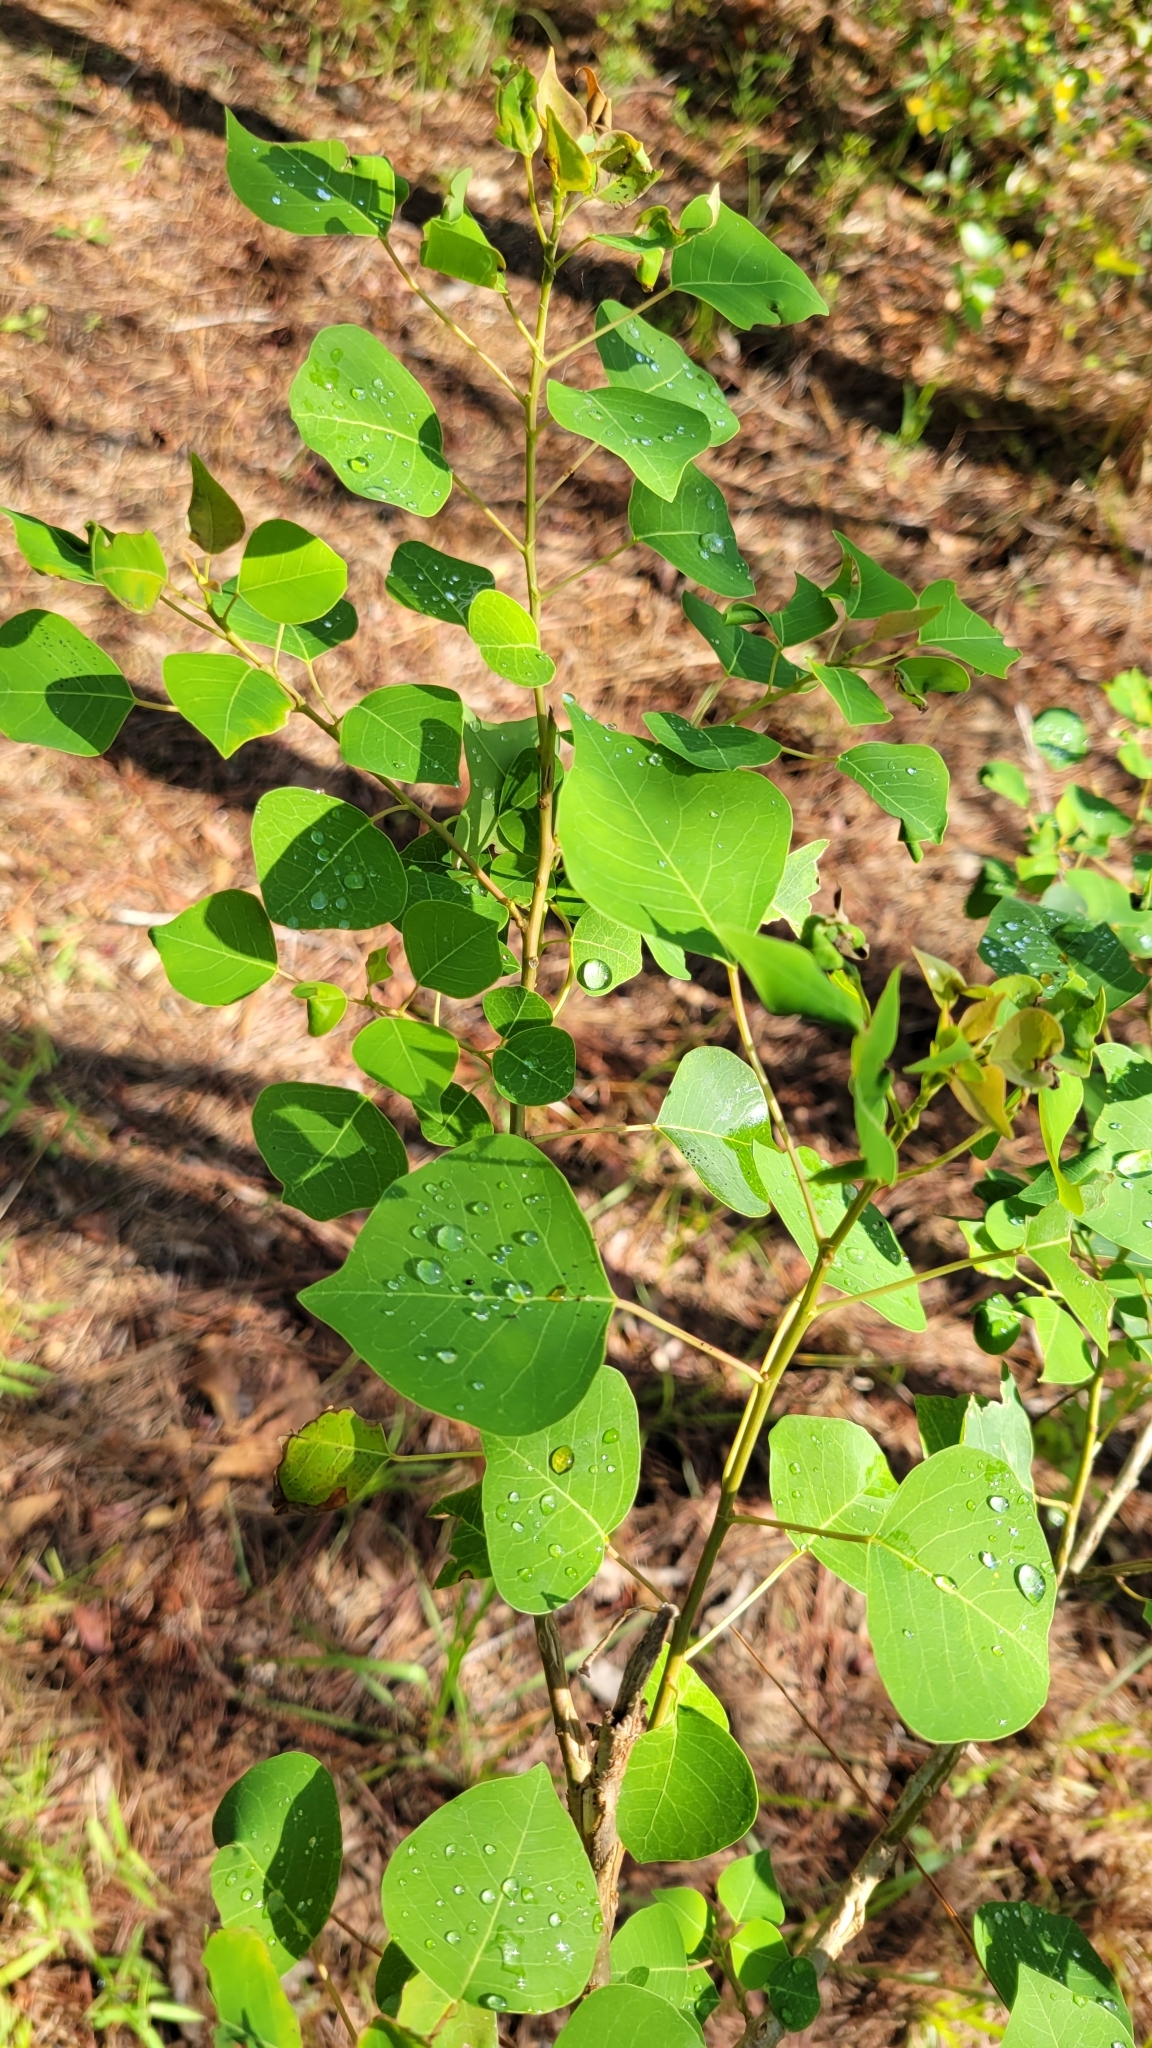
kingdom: Plantae
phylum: Tracheophyta
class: Magnoliopsida
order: Malpighiales
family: Euphorbiaceae
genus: Triadica
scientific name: Triadica sebifera
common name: Chinese tallow
